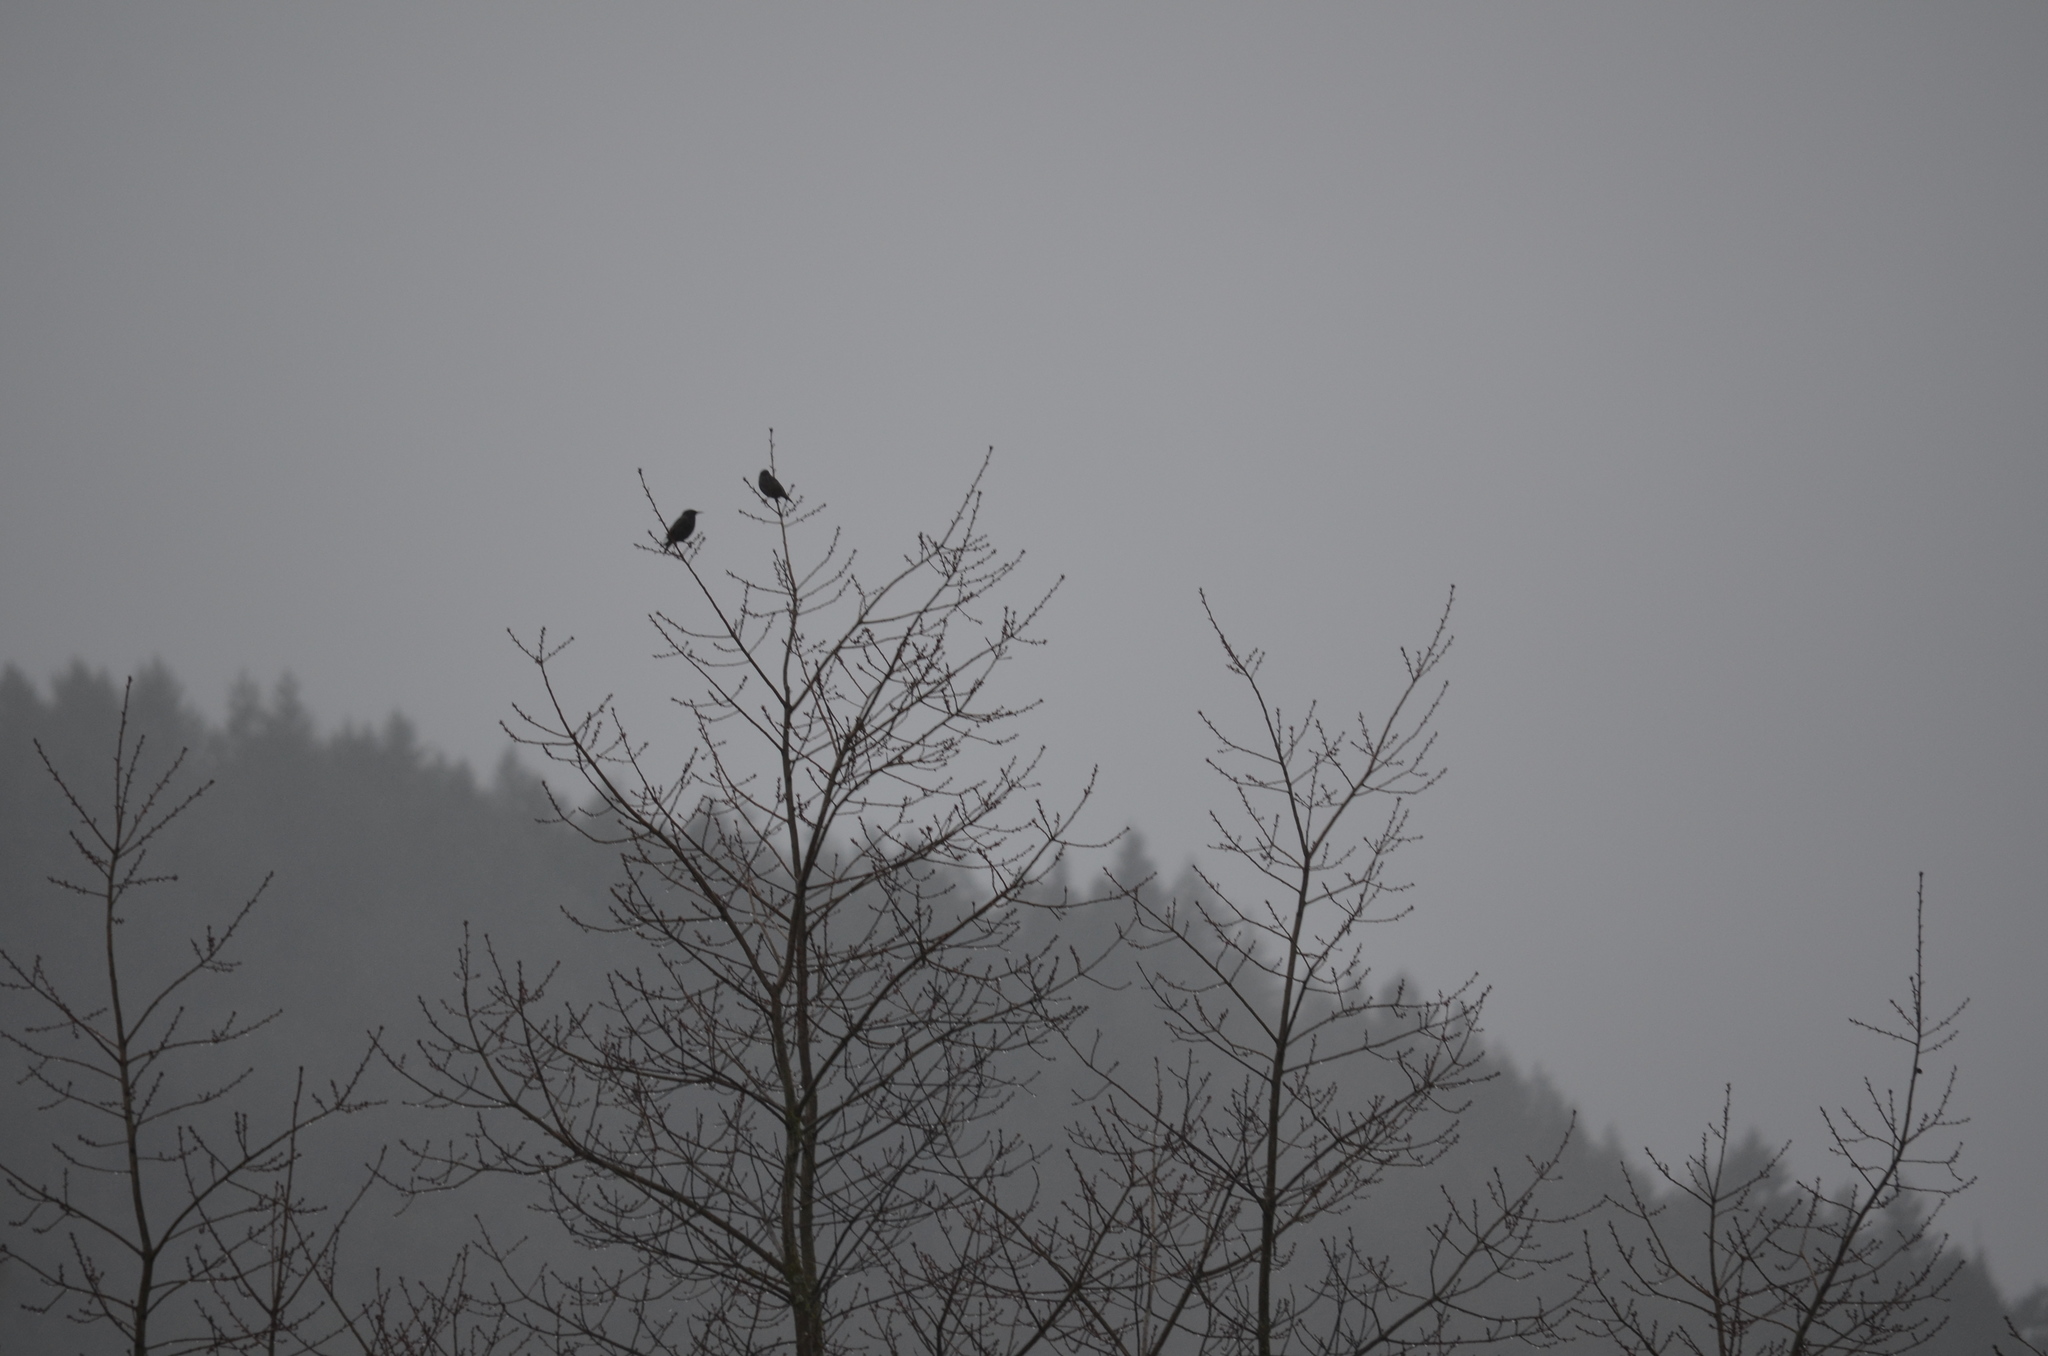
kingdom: Animalia
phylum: Chordata
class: Aves
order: Passeriformes
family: Sturnidae
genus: Sturnus
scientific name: Sturnus vulgaris
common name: Common starling
